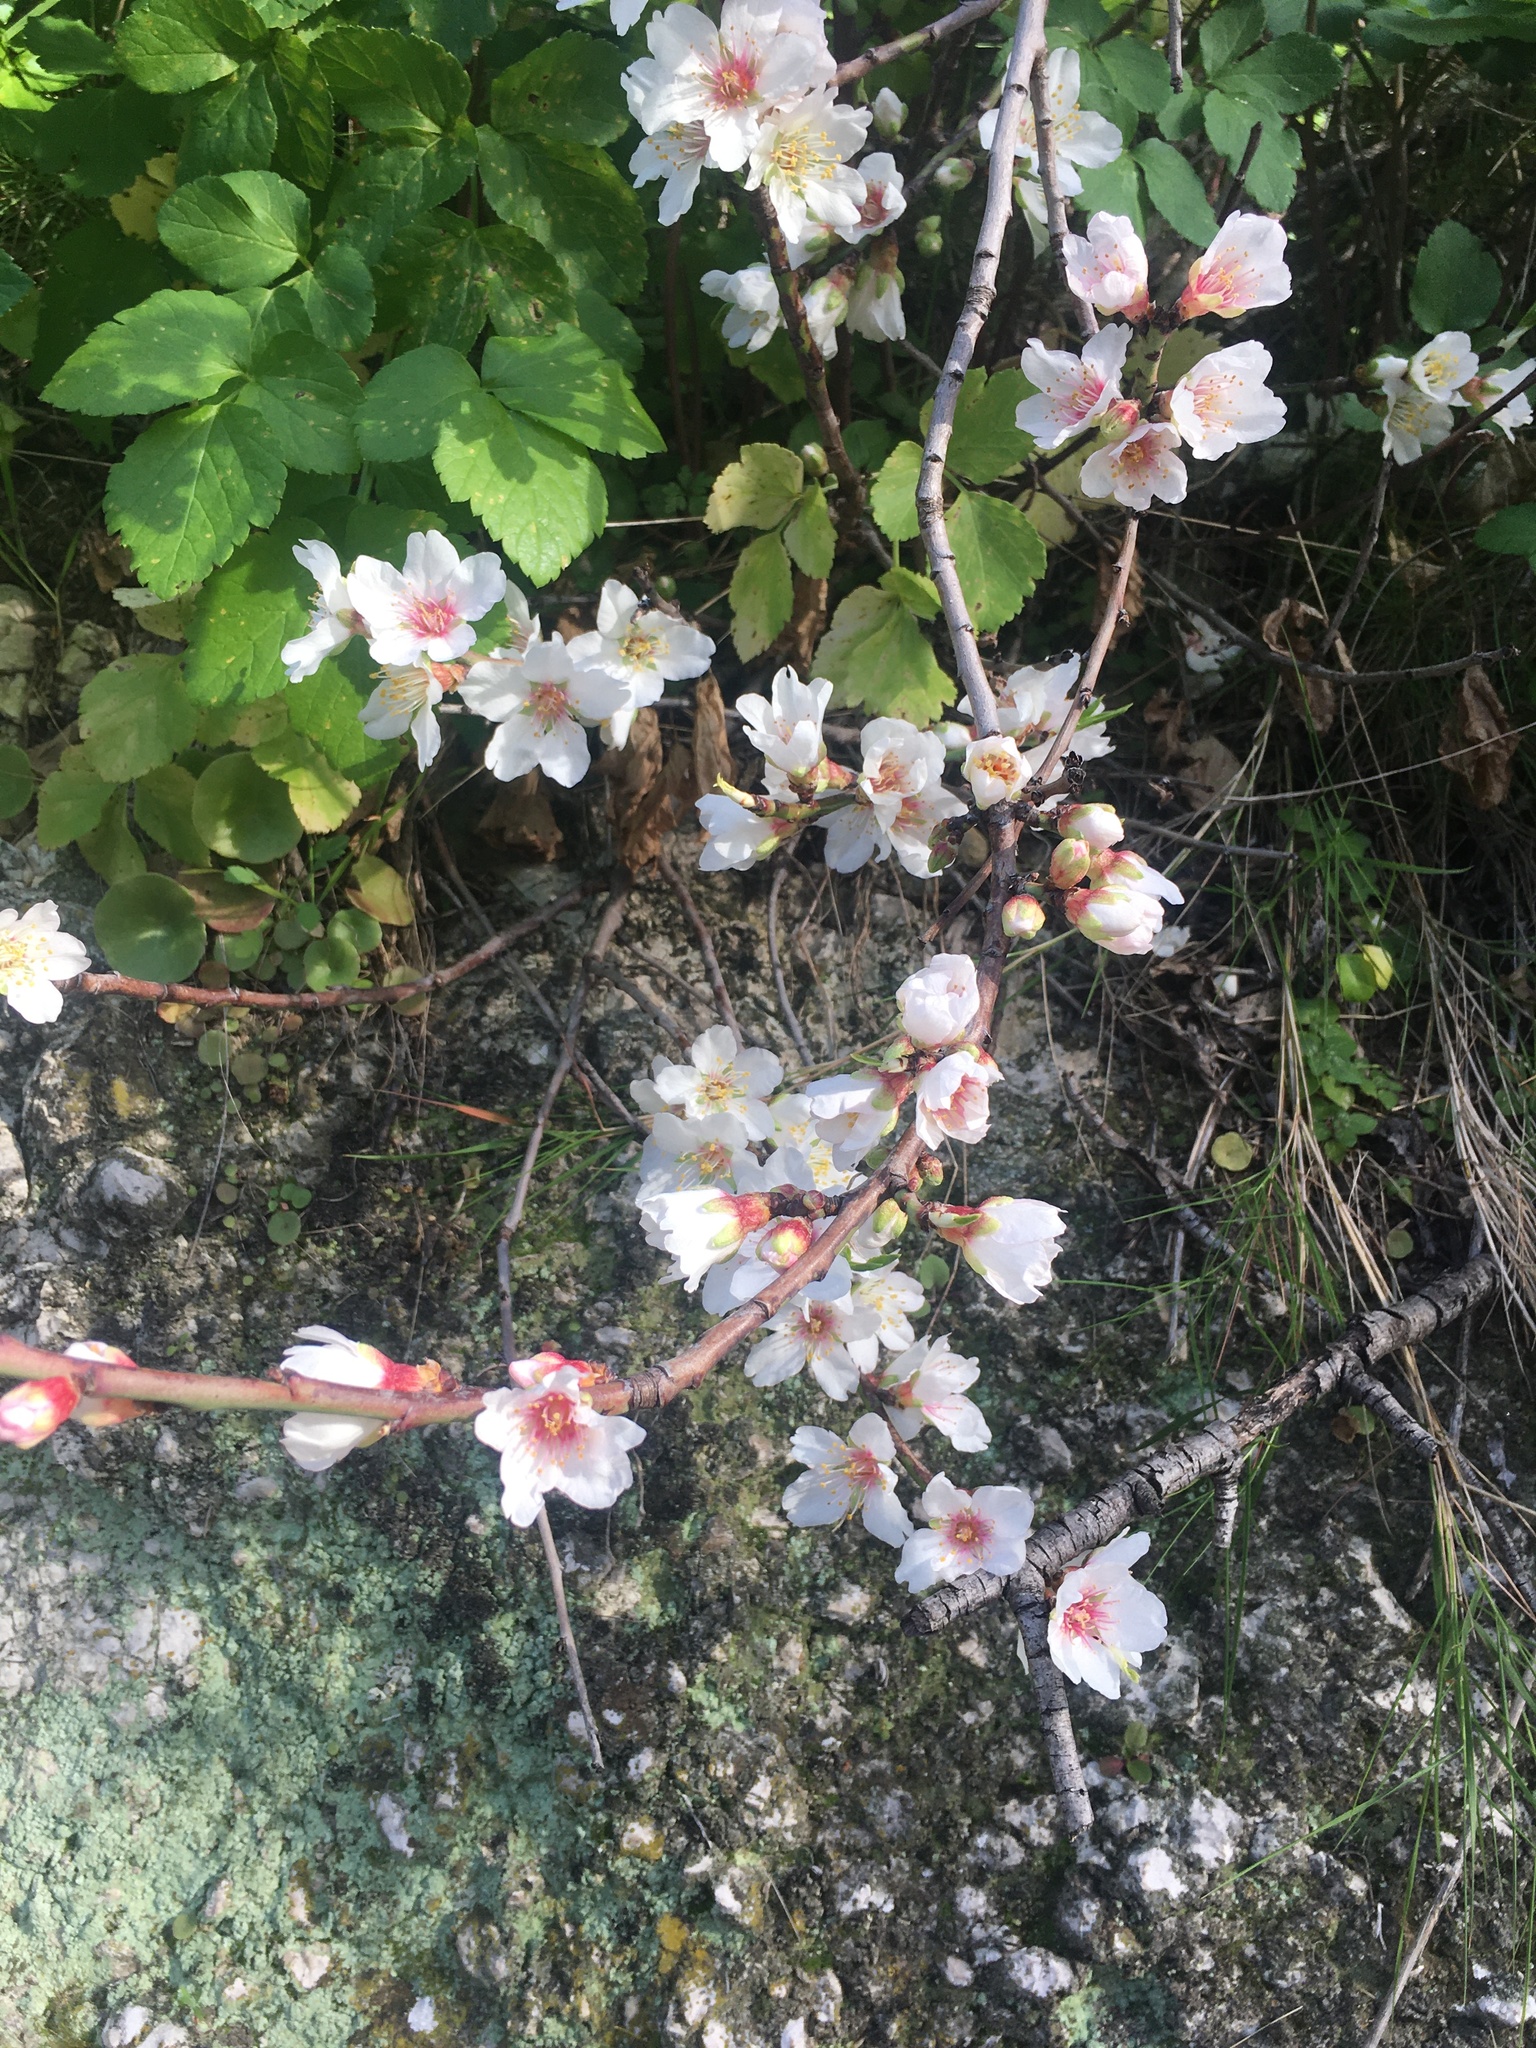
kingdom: Plantae
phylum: Tracheophyta
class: Magnoliopsida
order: Rosales
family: Rosaceae
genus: Prunus
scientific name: Prunus amygdalus
